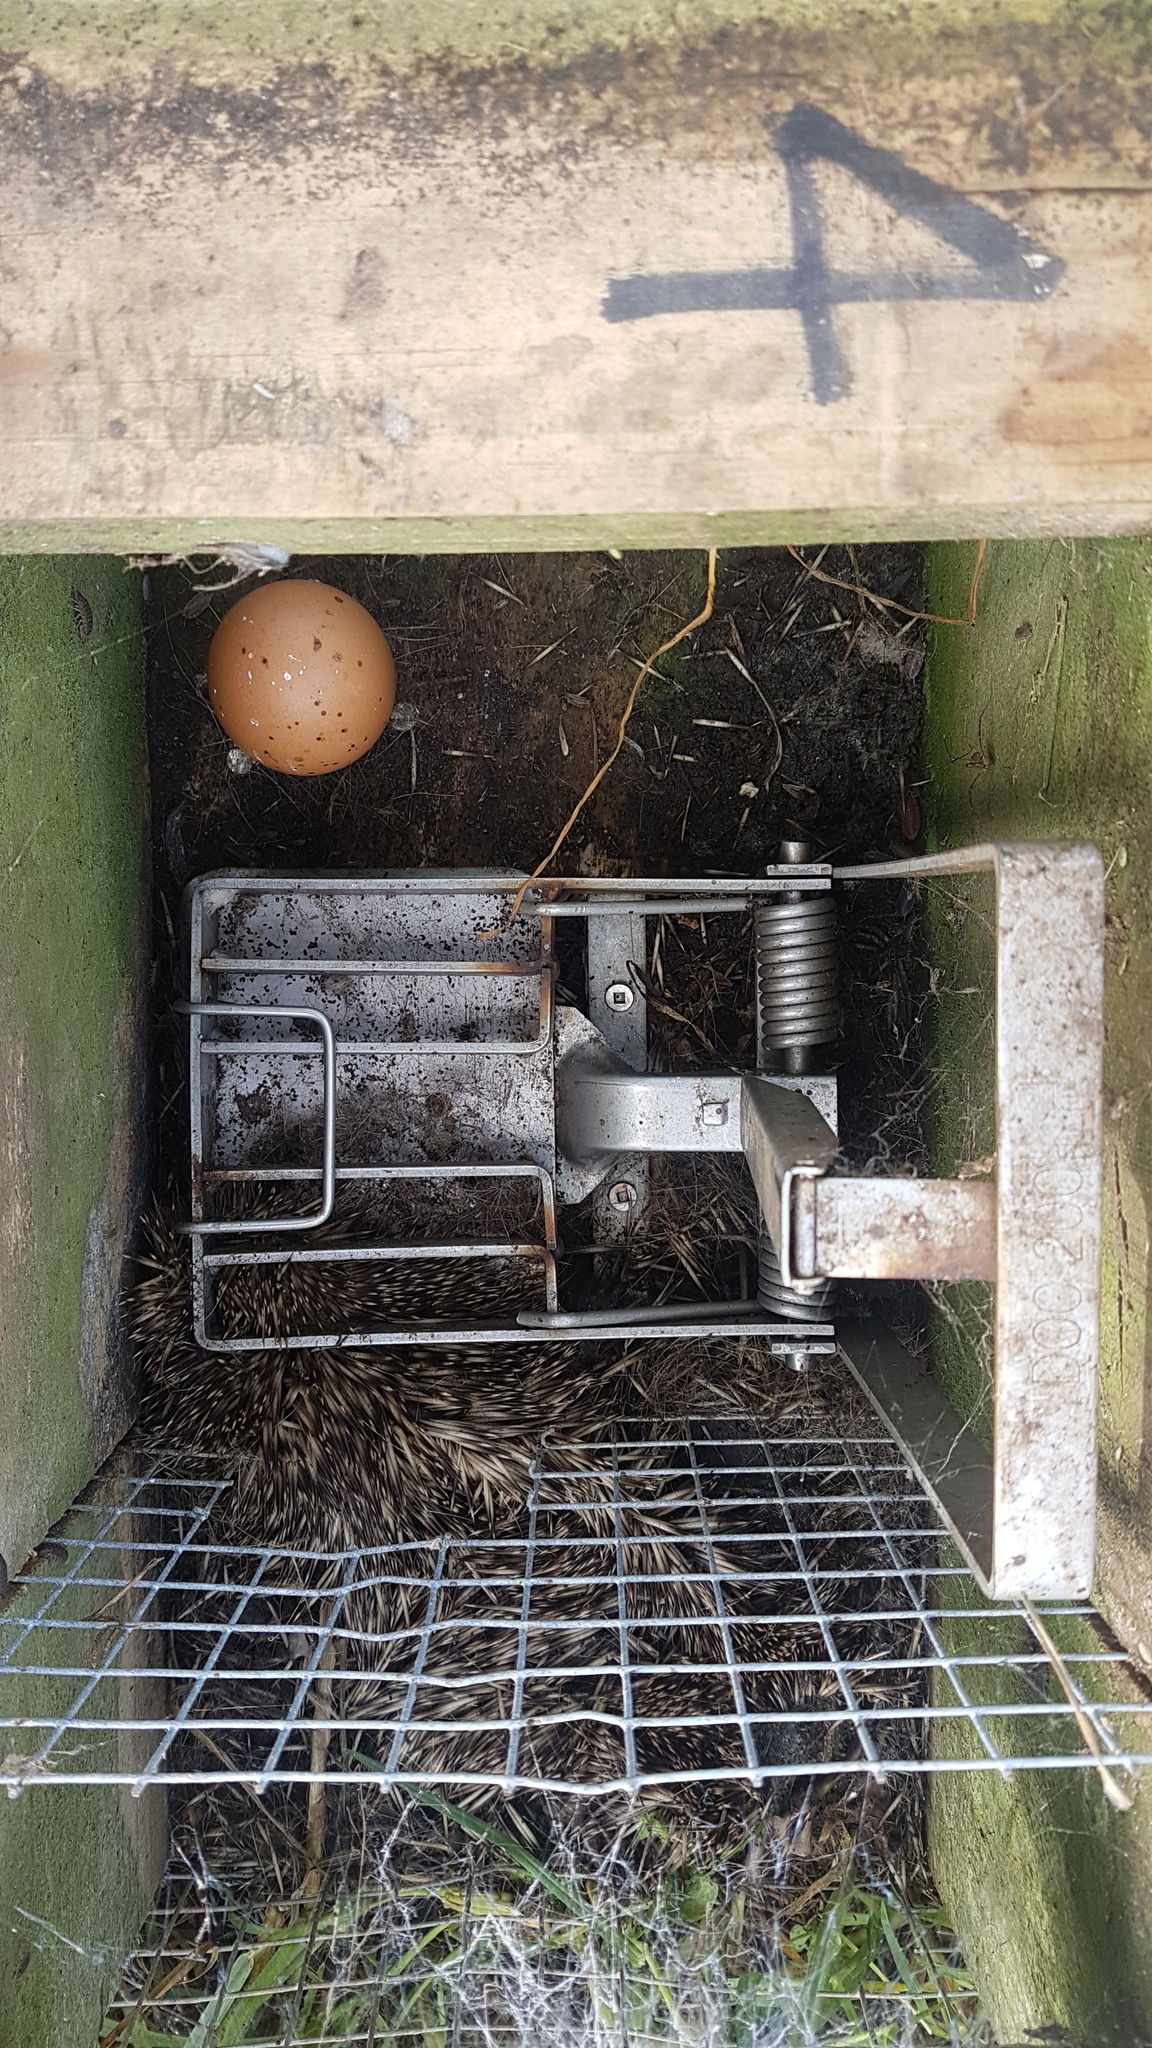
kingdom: Animalia
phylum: Chordata
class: Mammalia
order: Erinaceomorpha
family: Erinaceidae
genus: Erinaceus
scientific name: Erinaceus europaeus
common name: West european hedgehog
